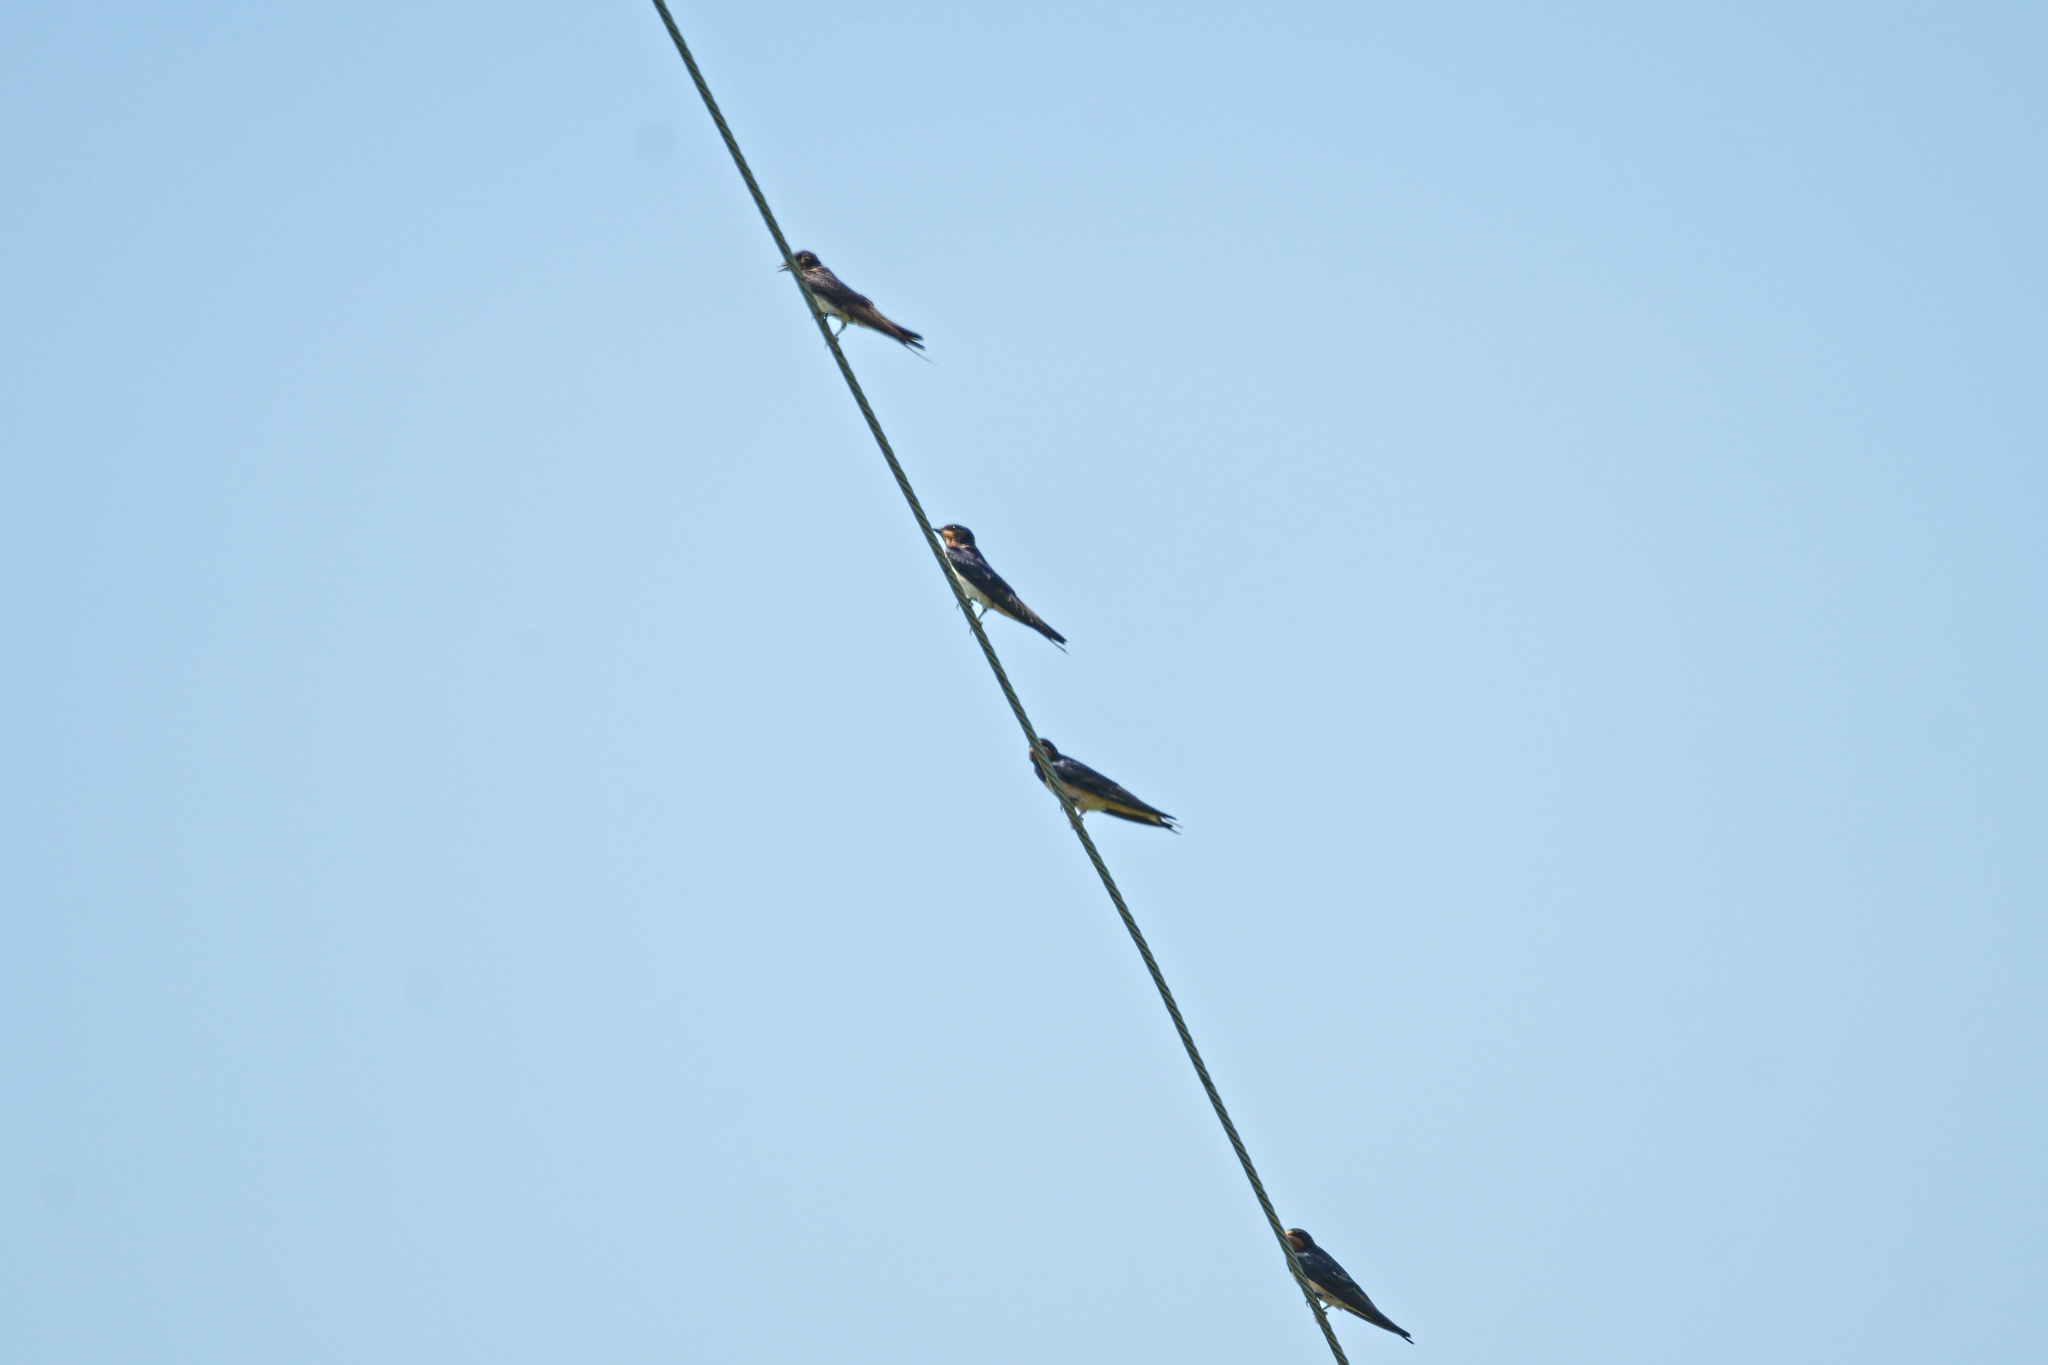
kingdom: Animalia
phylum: Chordata
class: Aves
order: Passeriformes
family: Hirundinidae
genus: Hirundo
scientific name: Hirundo rustica
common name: Barn swallow
